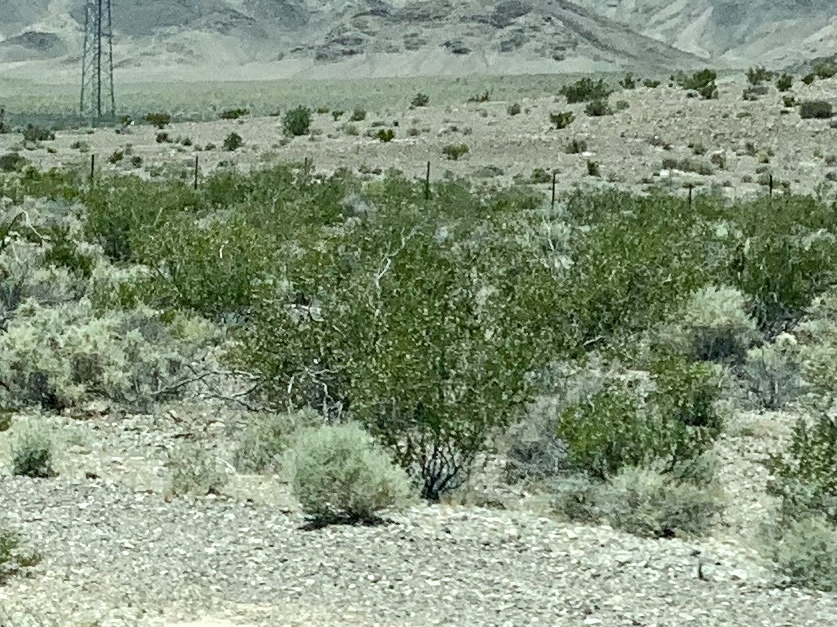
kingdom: Plantae
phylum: Tracheophyta
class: Magnoliopsida
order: Zygophyllales
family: Zygophyllaceae
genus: Larrea
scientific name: Larrea tridentata
